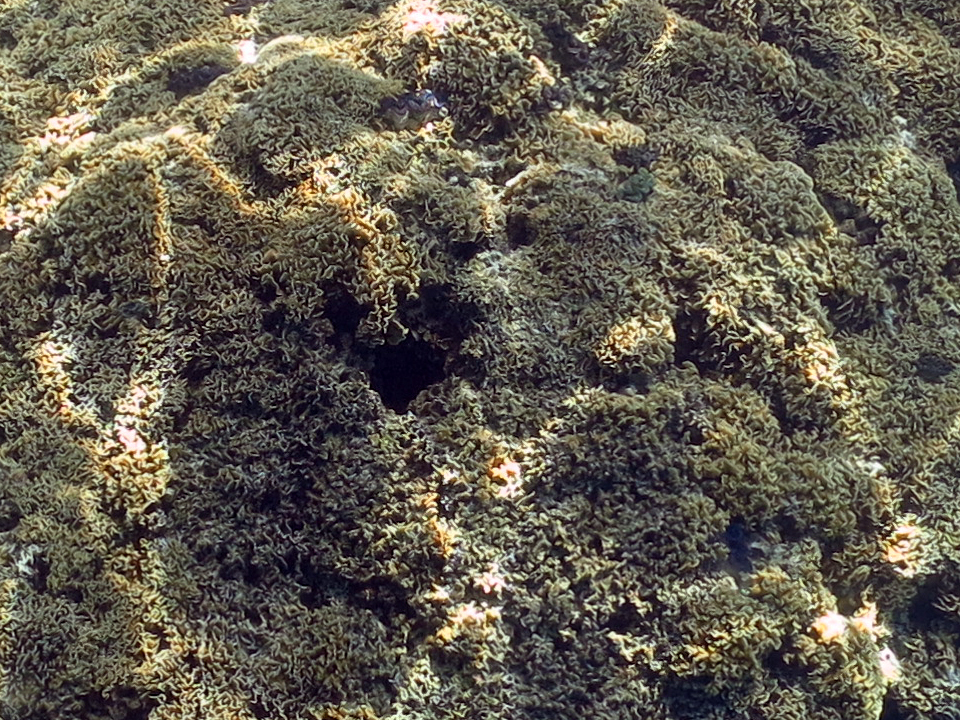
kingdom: Animalia
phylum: Cnidaria
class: Anthozoa
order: Scleractinia
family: Agariciidae
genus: Pavona
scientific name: Pavona cactus
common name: Leaf coral
